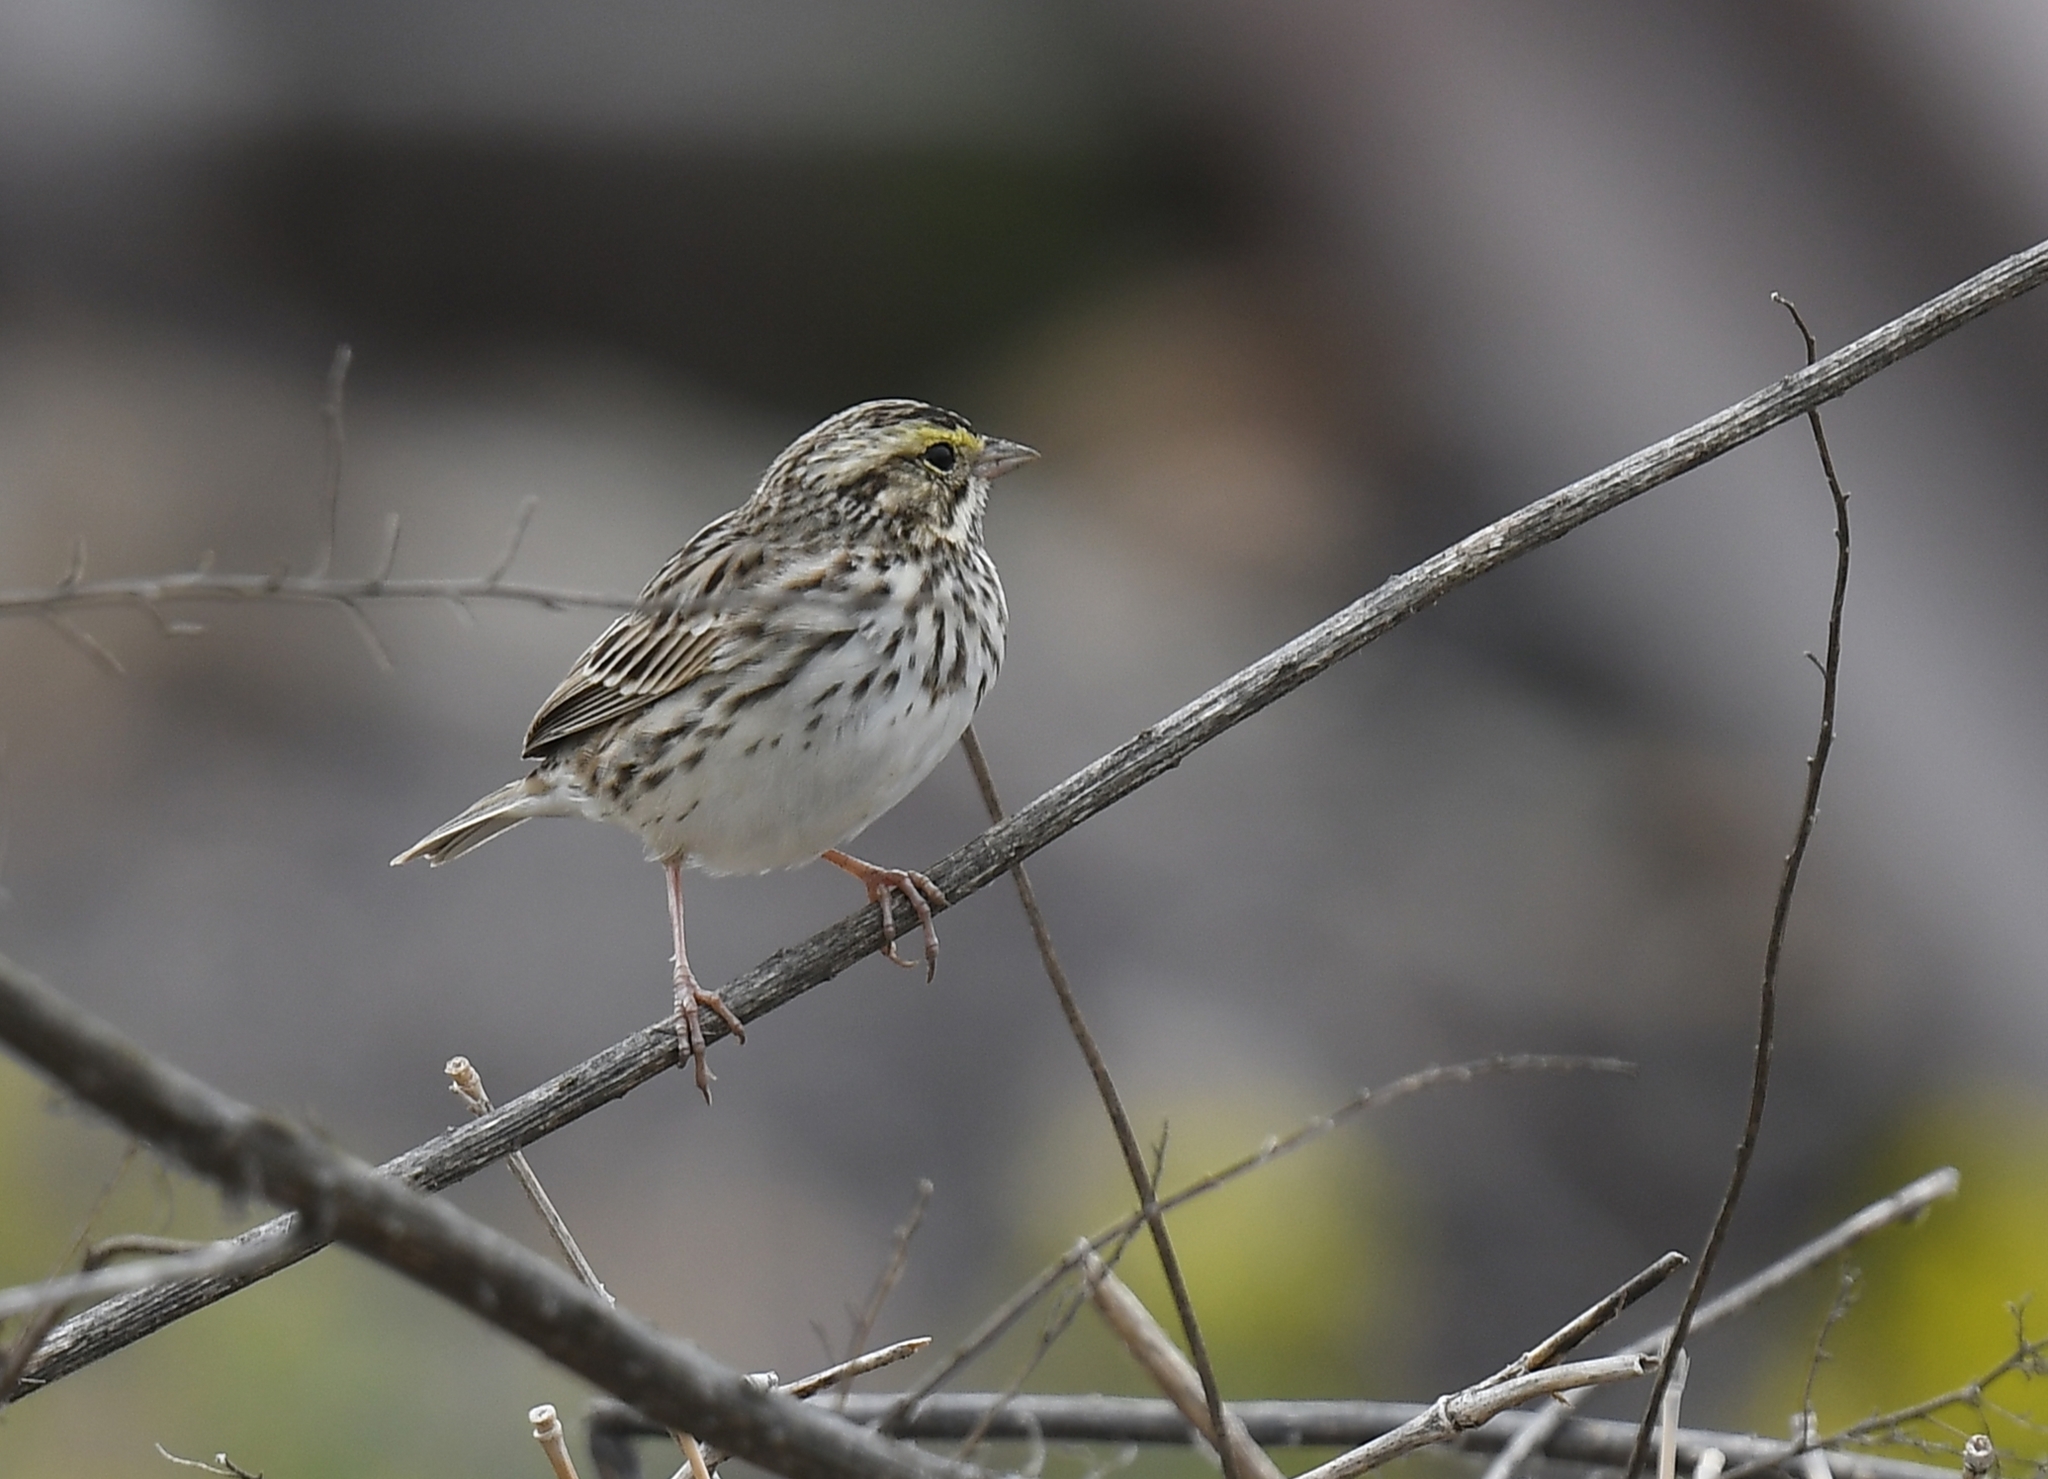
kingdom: Animalia
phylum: Chordata
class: Aves
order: Passeriformes
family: Passerellidae
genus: Passerculus
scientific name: Passerculus sandwichensis
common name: Savannah sparrow
